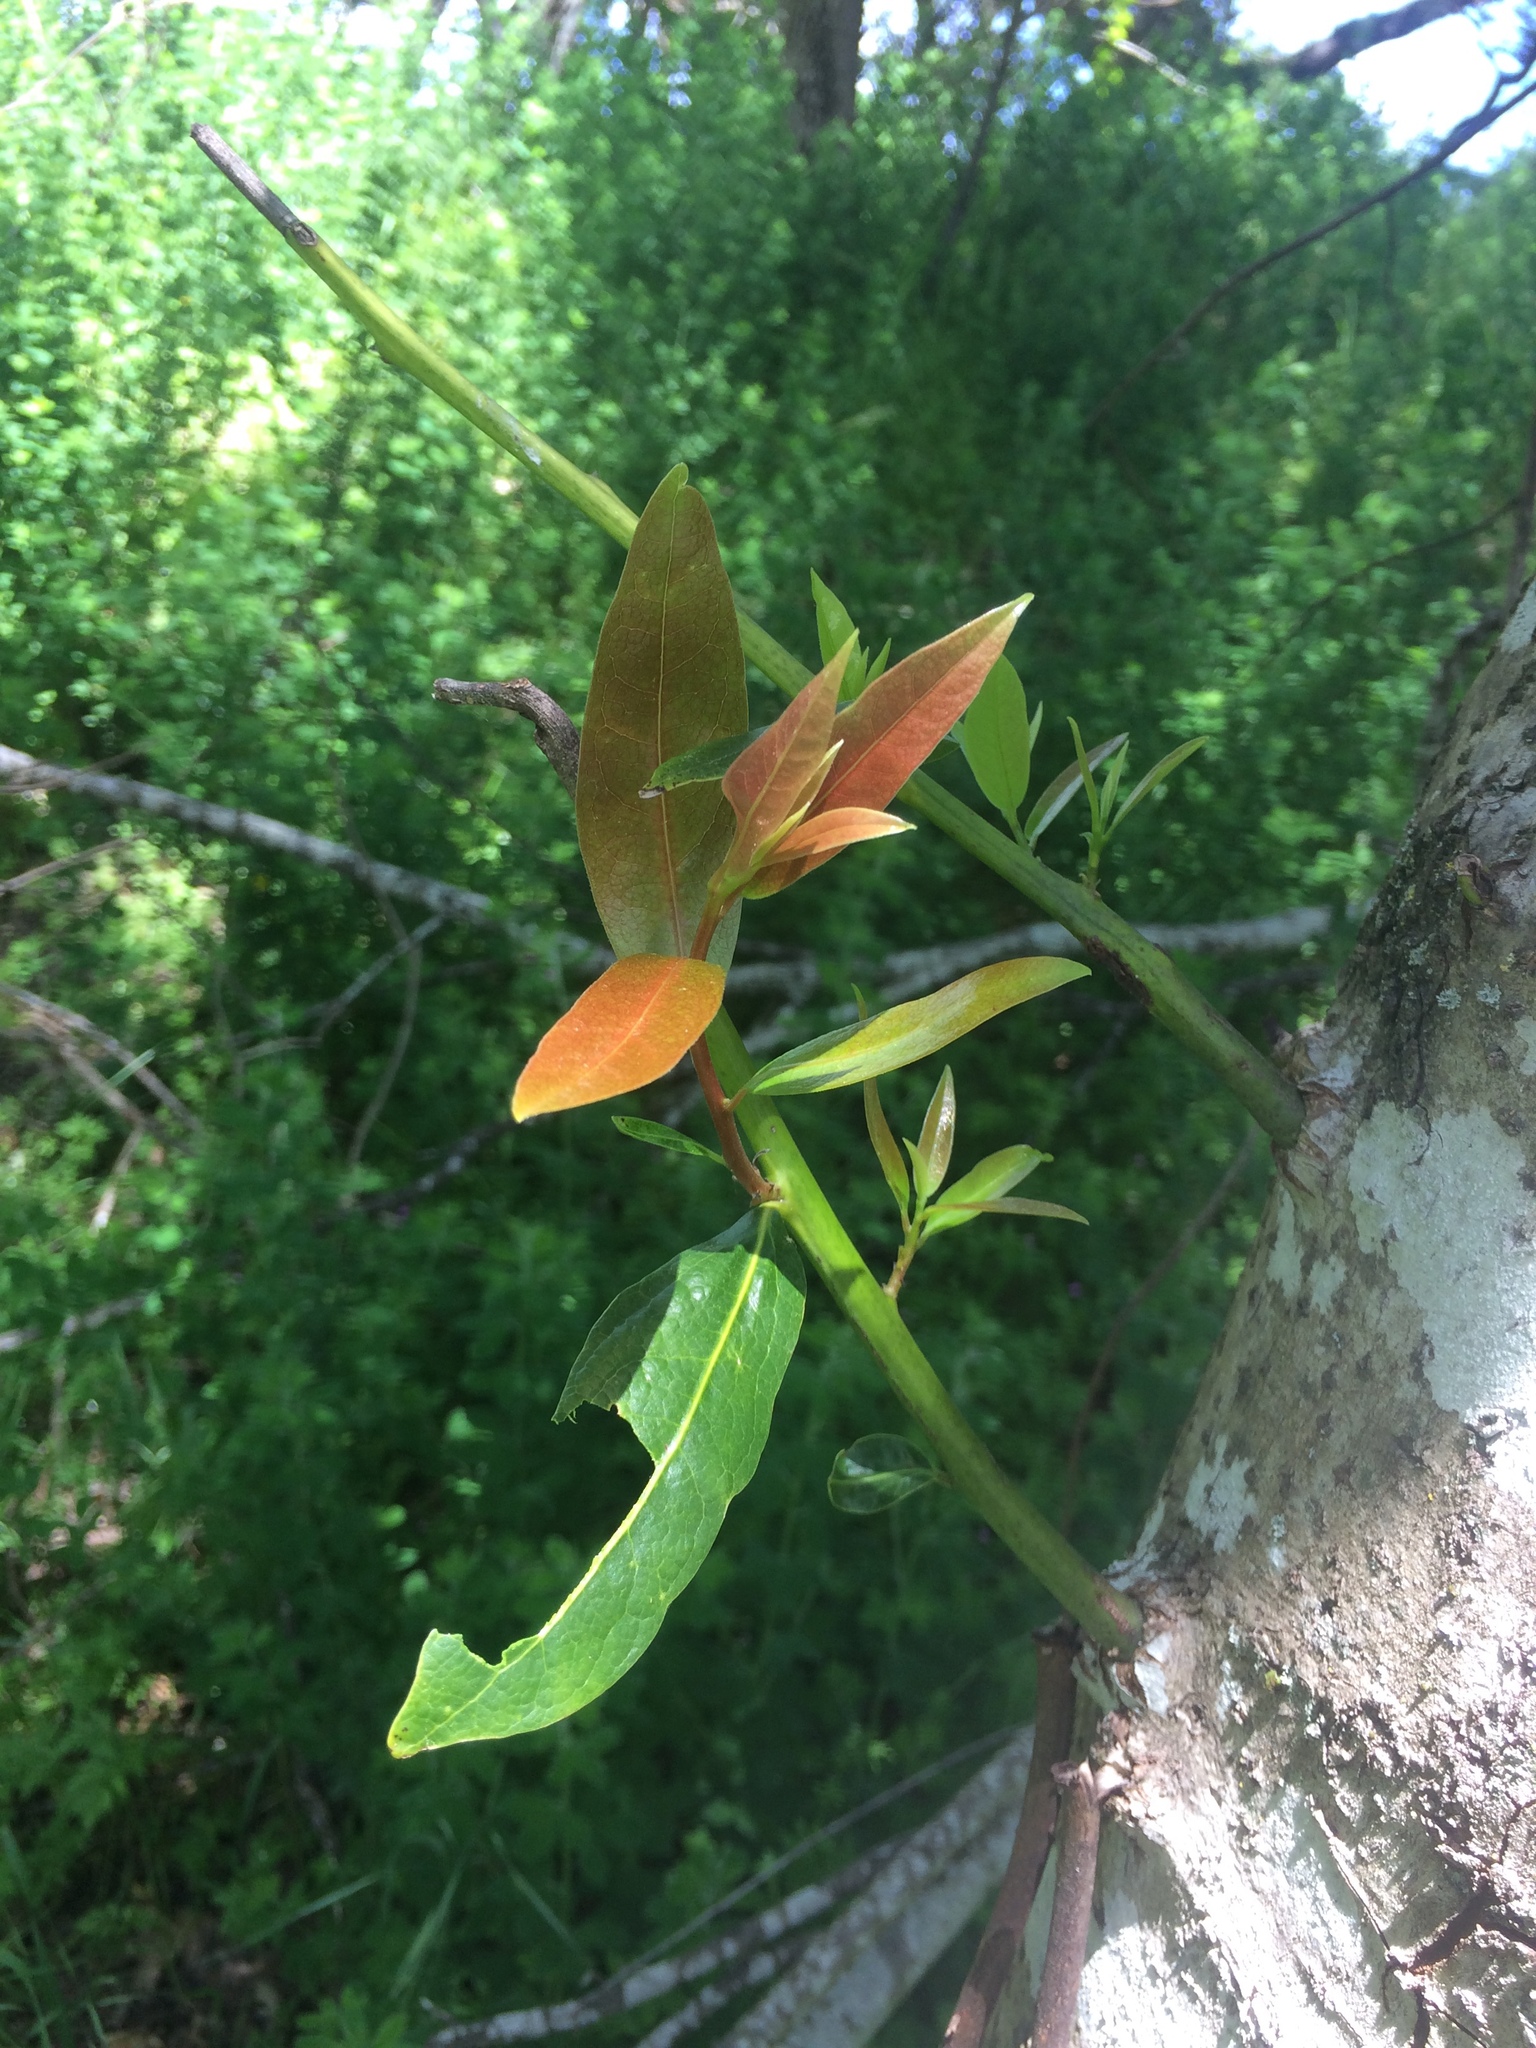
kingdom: Plantae
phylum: Tracheophyta
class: Magnoliopsida
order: Laurales
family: Lauraceae
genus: Umbellularia
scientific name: Umbellularia californica
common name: California bay
